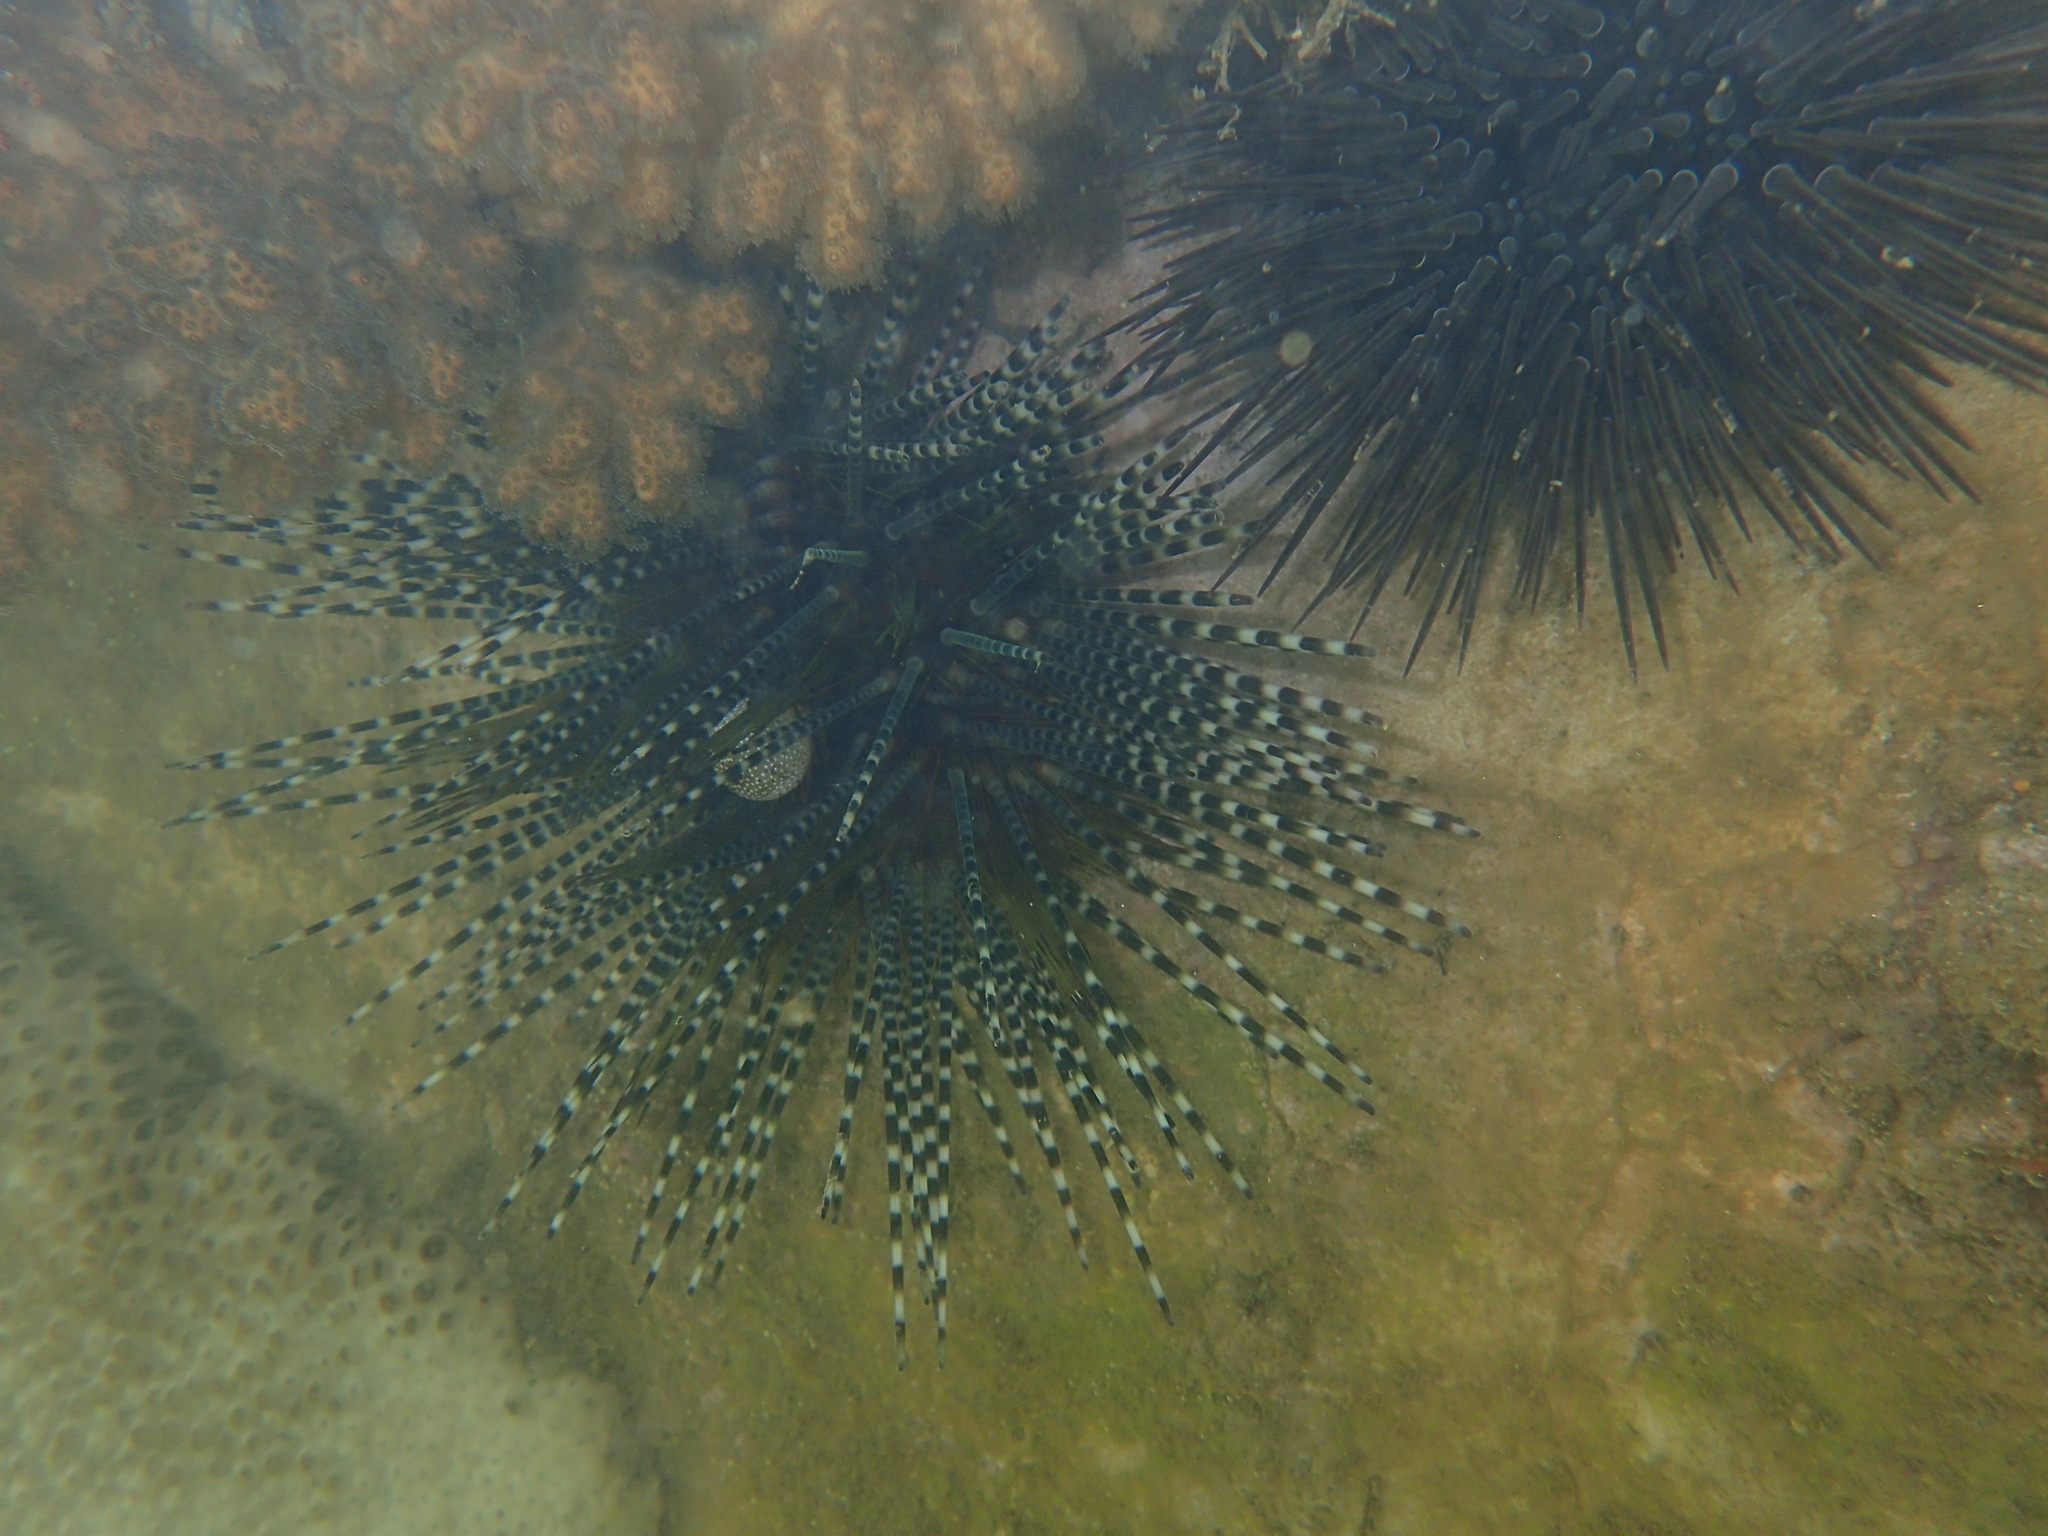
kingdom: Animalia
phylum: Echinodermata
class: Echinoidea
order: Diadematoida
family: Diadematidae
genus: Echinothrix
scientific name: Echinothrix calamaris
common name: Banded sea urchin
